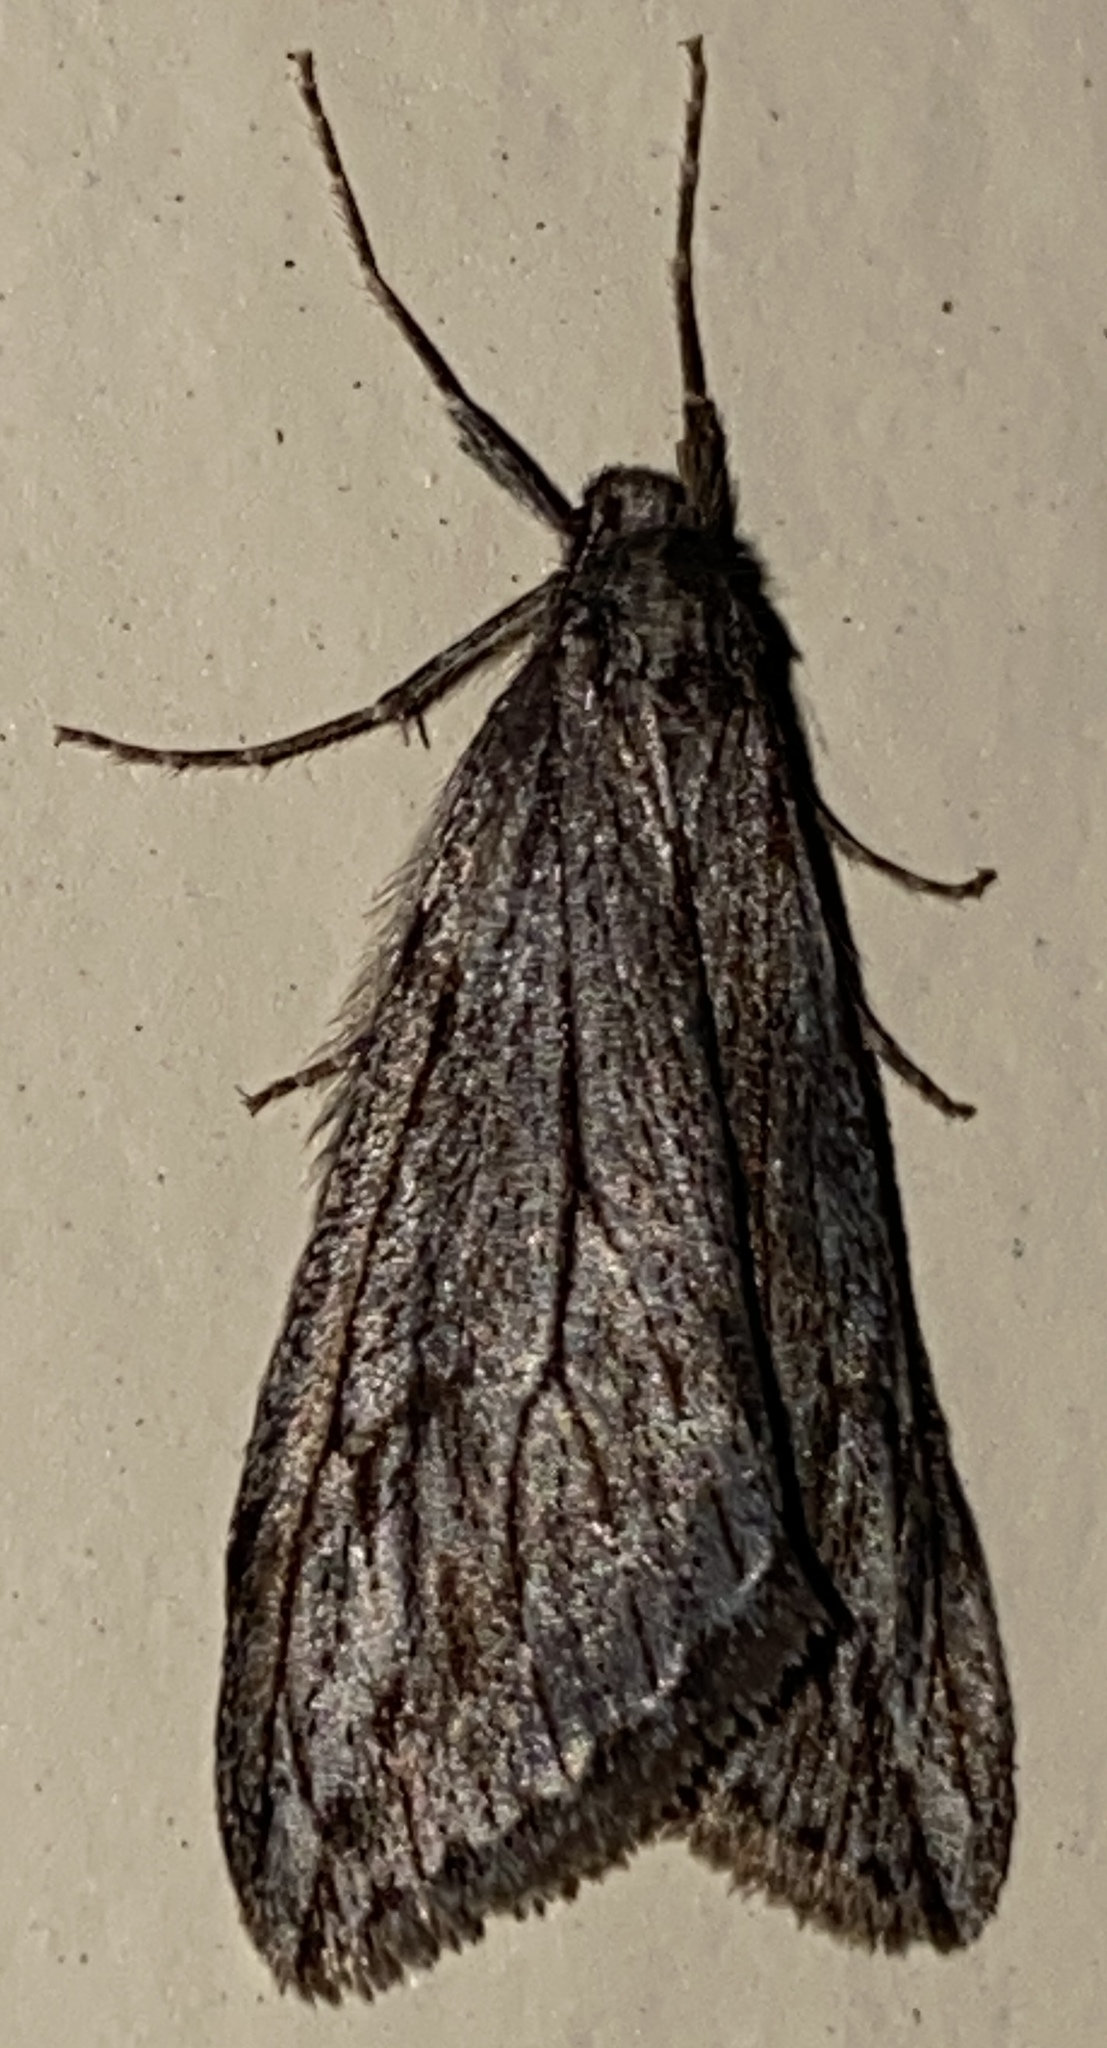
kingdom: Animalia
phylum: Arthropoda
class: Insecta
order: Lepidoptera
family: Geometridae
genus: Paleacrita
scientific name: Paleacrita longiciliata
